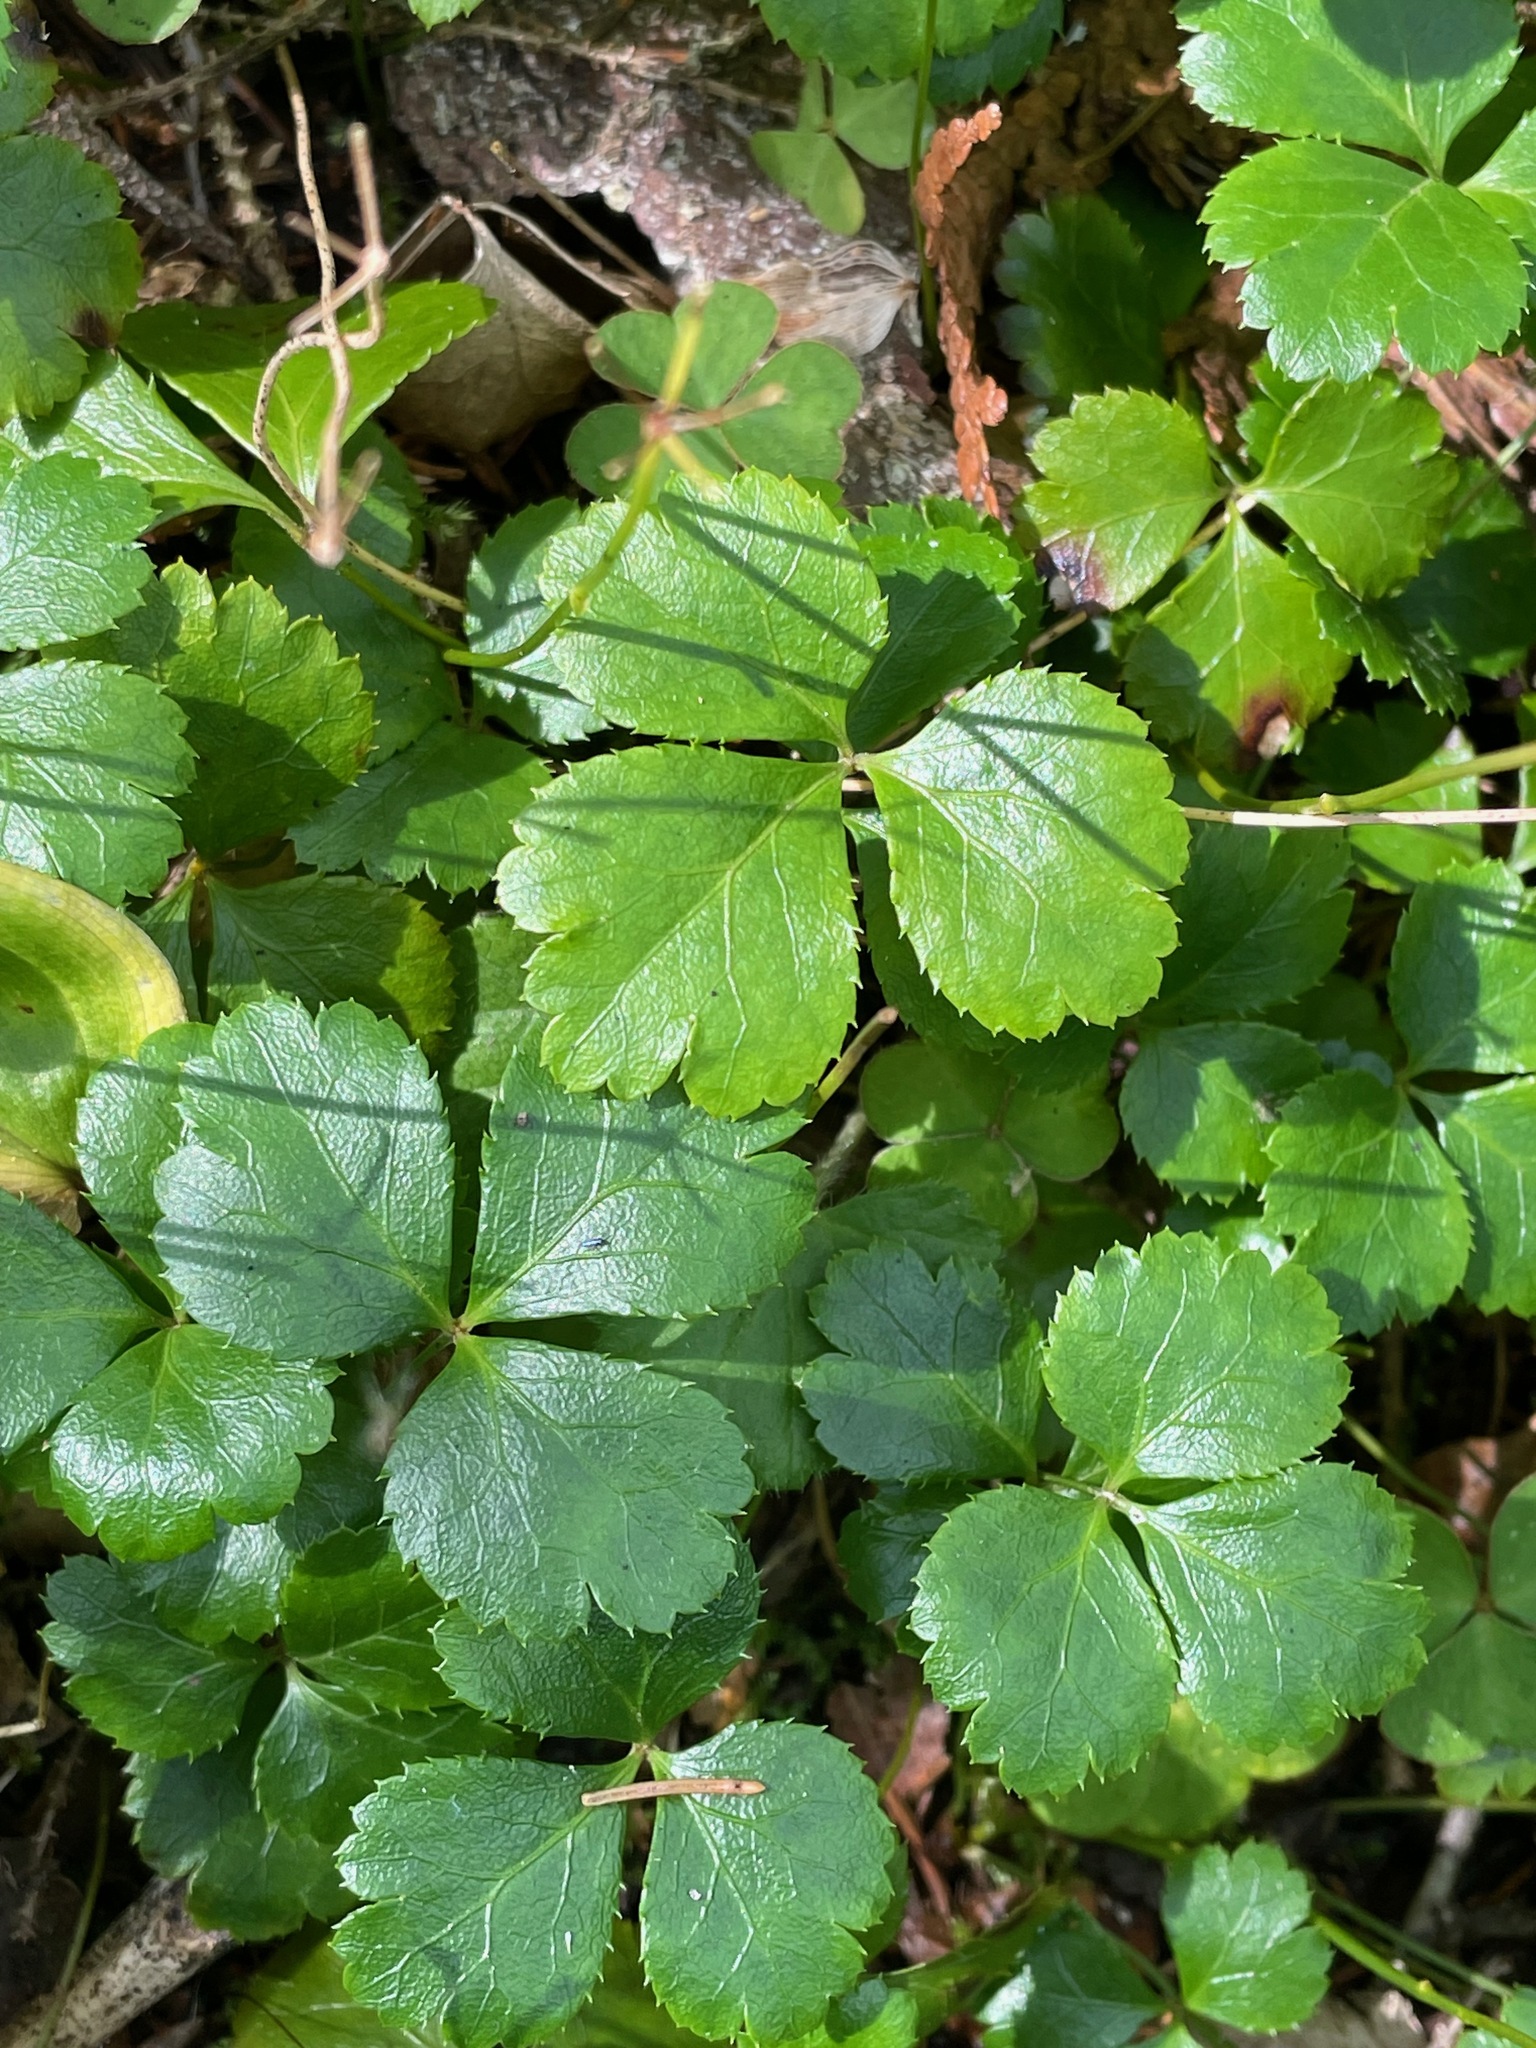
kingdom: Plantae
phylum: Tracheophyta
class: Magnoliopsida
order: Ranunculales
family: Ranunculaceae
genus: Coptis
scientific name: Coptis trifolia
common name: Canker-root
